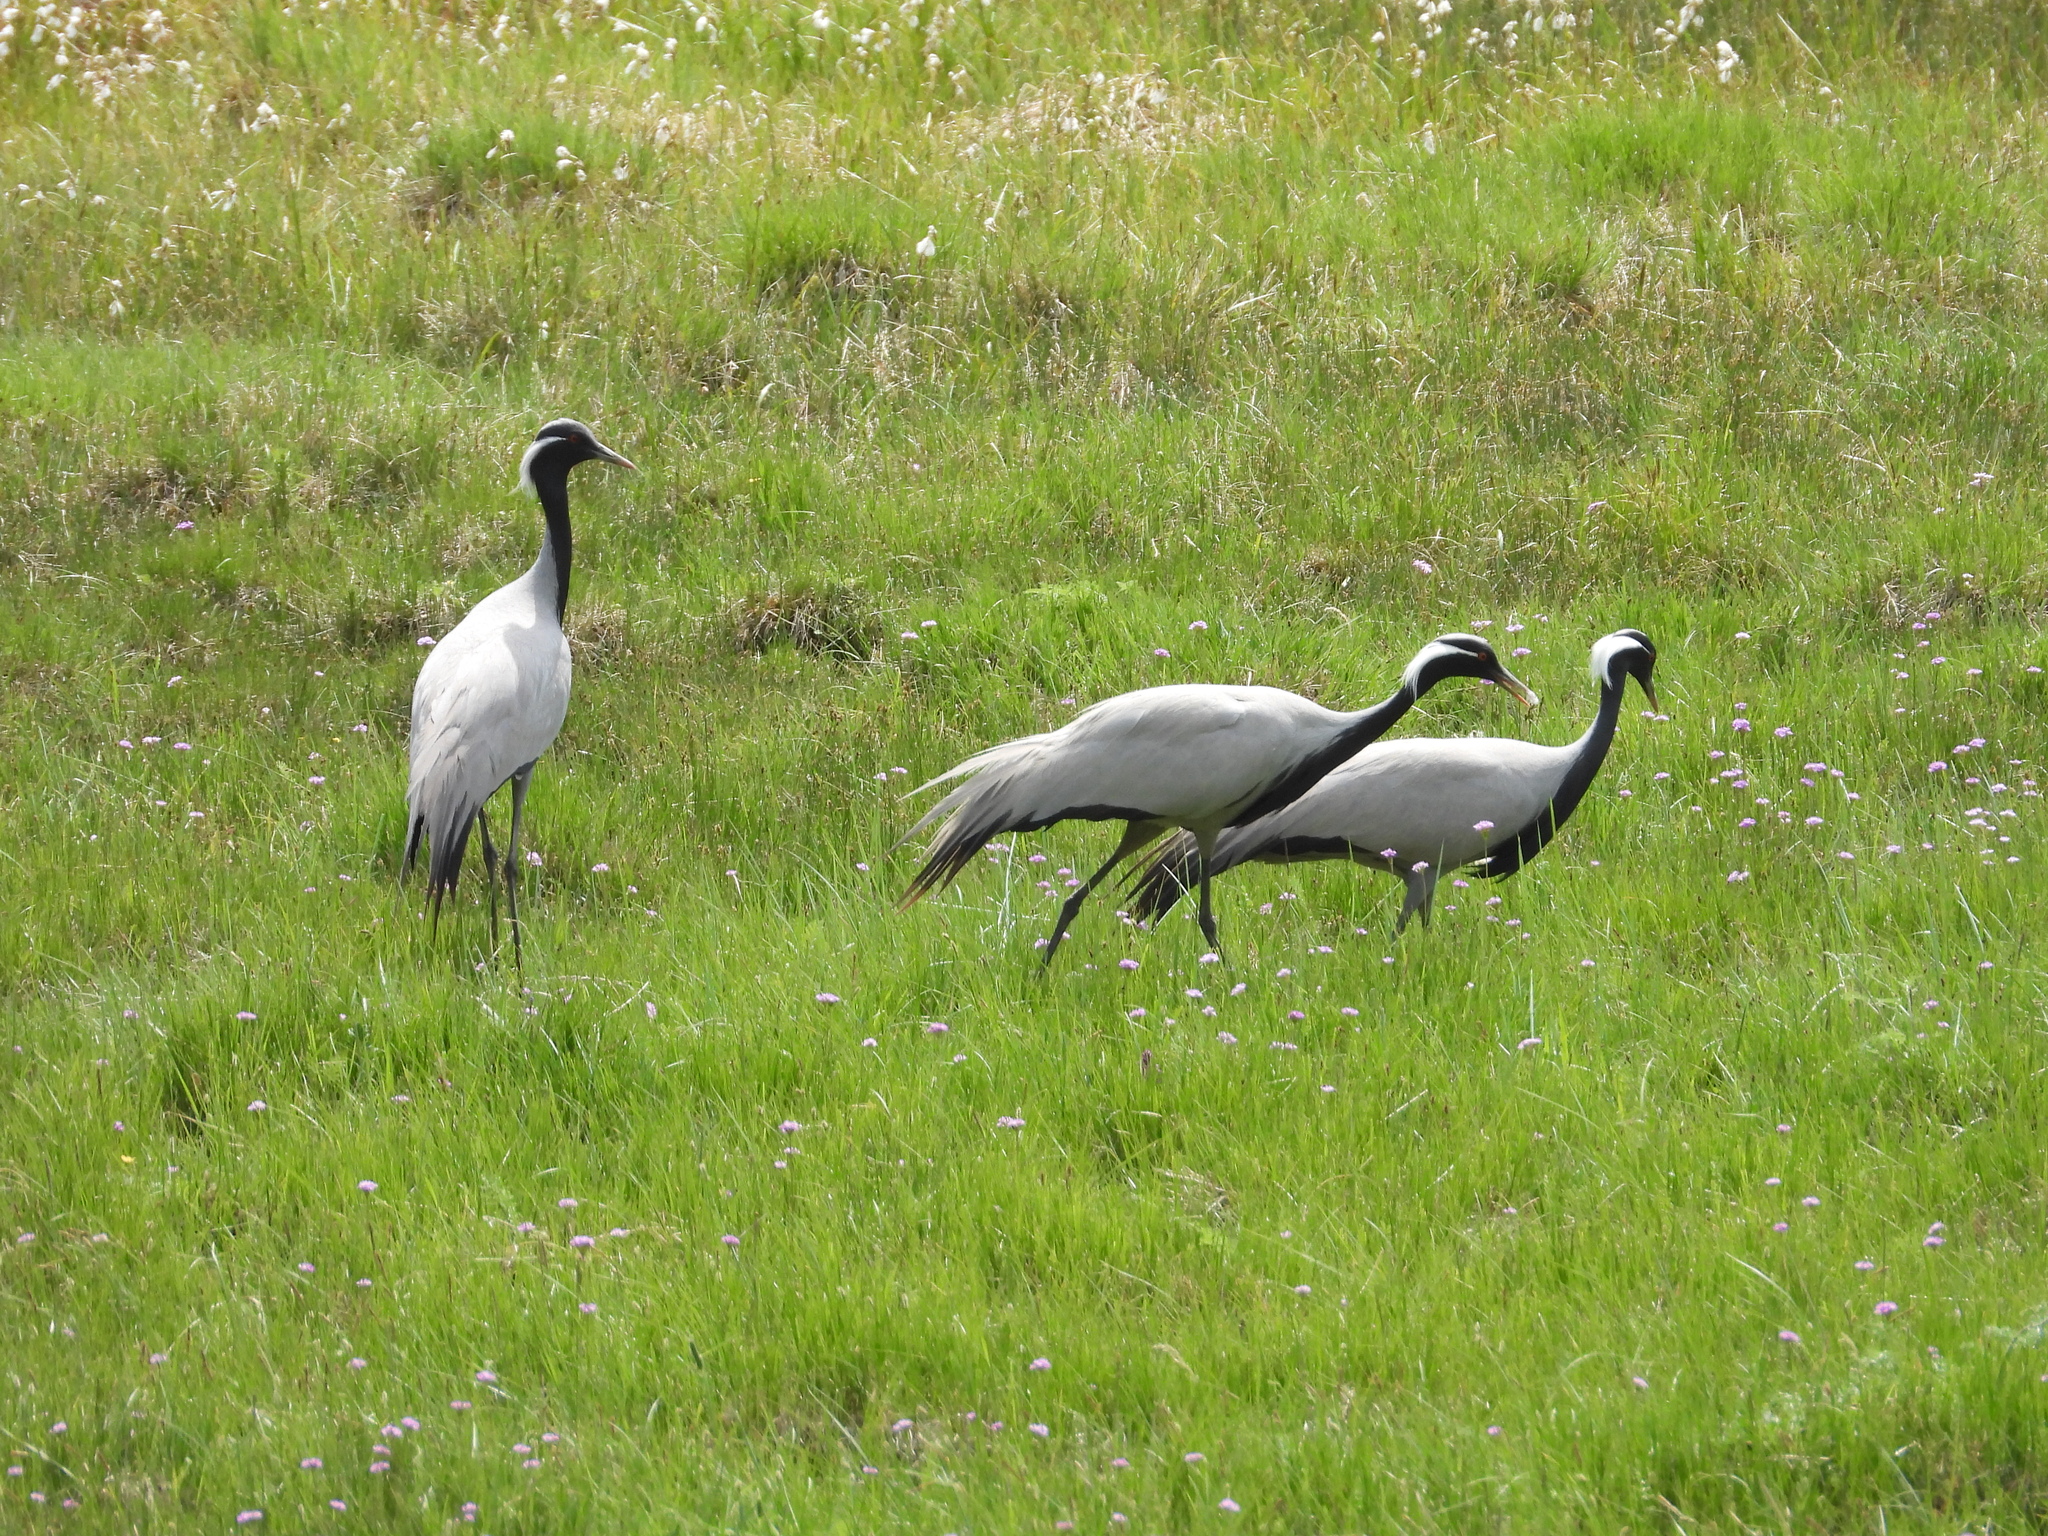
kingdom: Animalia
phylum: Chordata
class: Aves
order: Gruiformes
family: Gruidae
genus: Anthropoides
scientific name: Anthropoides virgo
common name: Demoiselle crane
